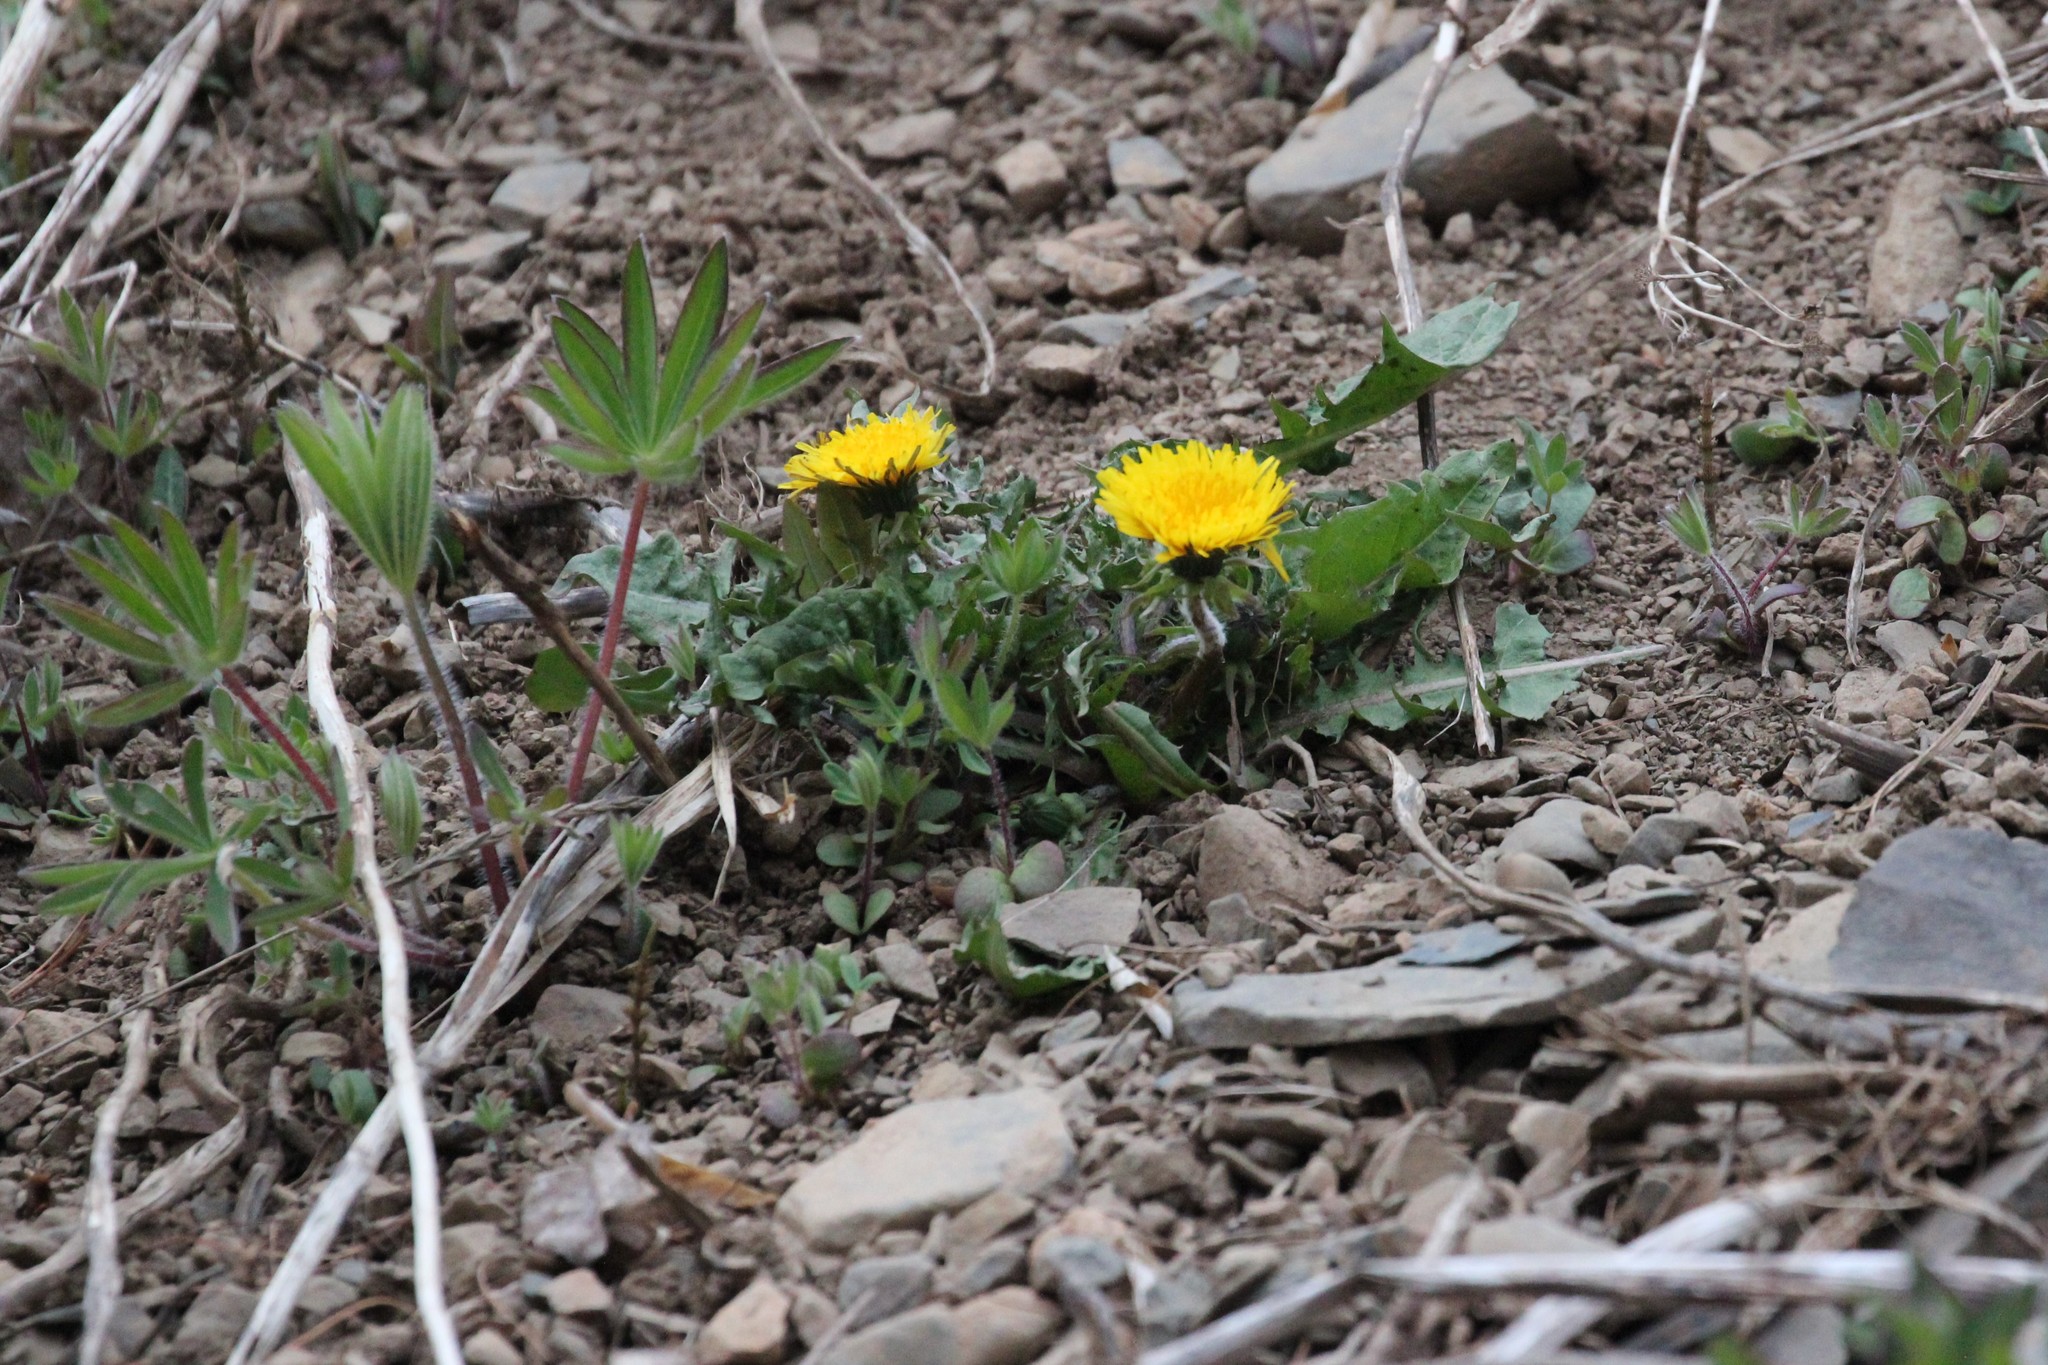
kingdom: Plantae
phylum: Tracheophyta
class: Magnoliopsida
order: Asterales
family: Asteraceae
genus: Taraxacum
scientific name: Taraxacum officinale
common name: Common dandelion
